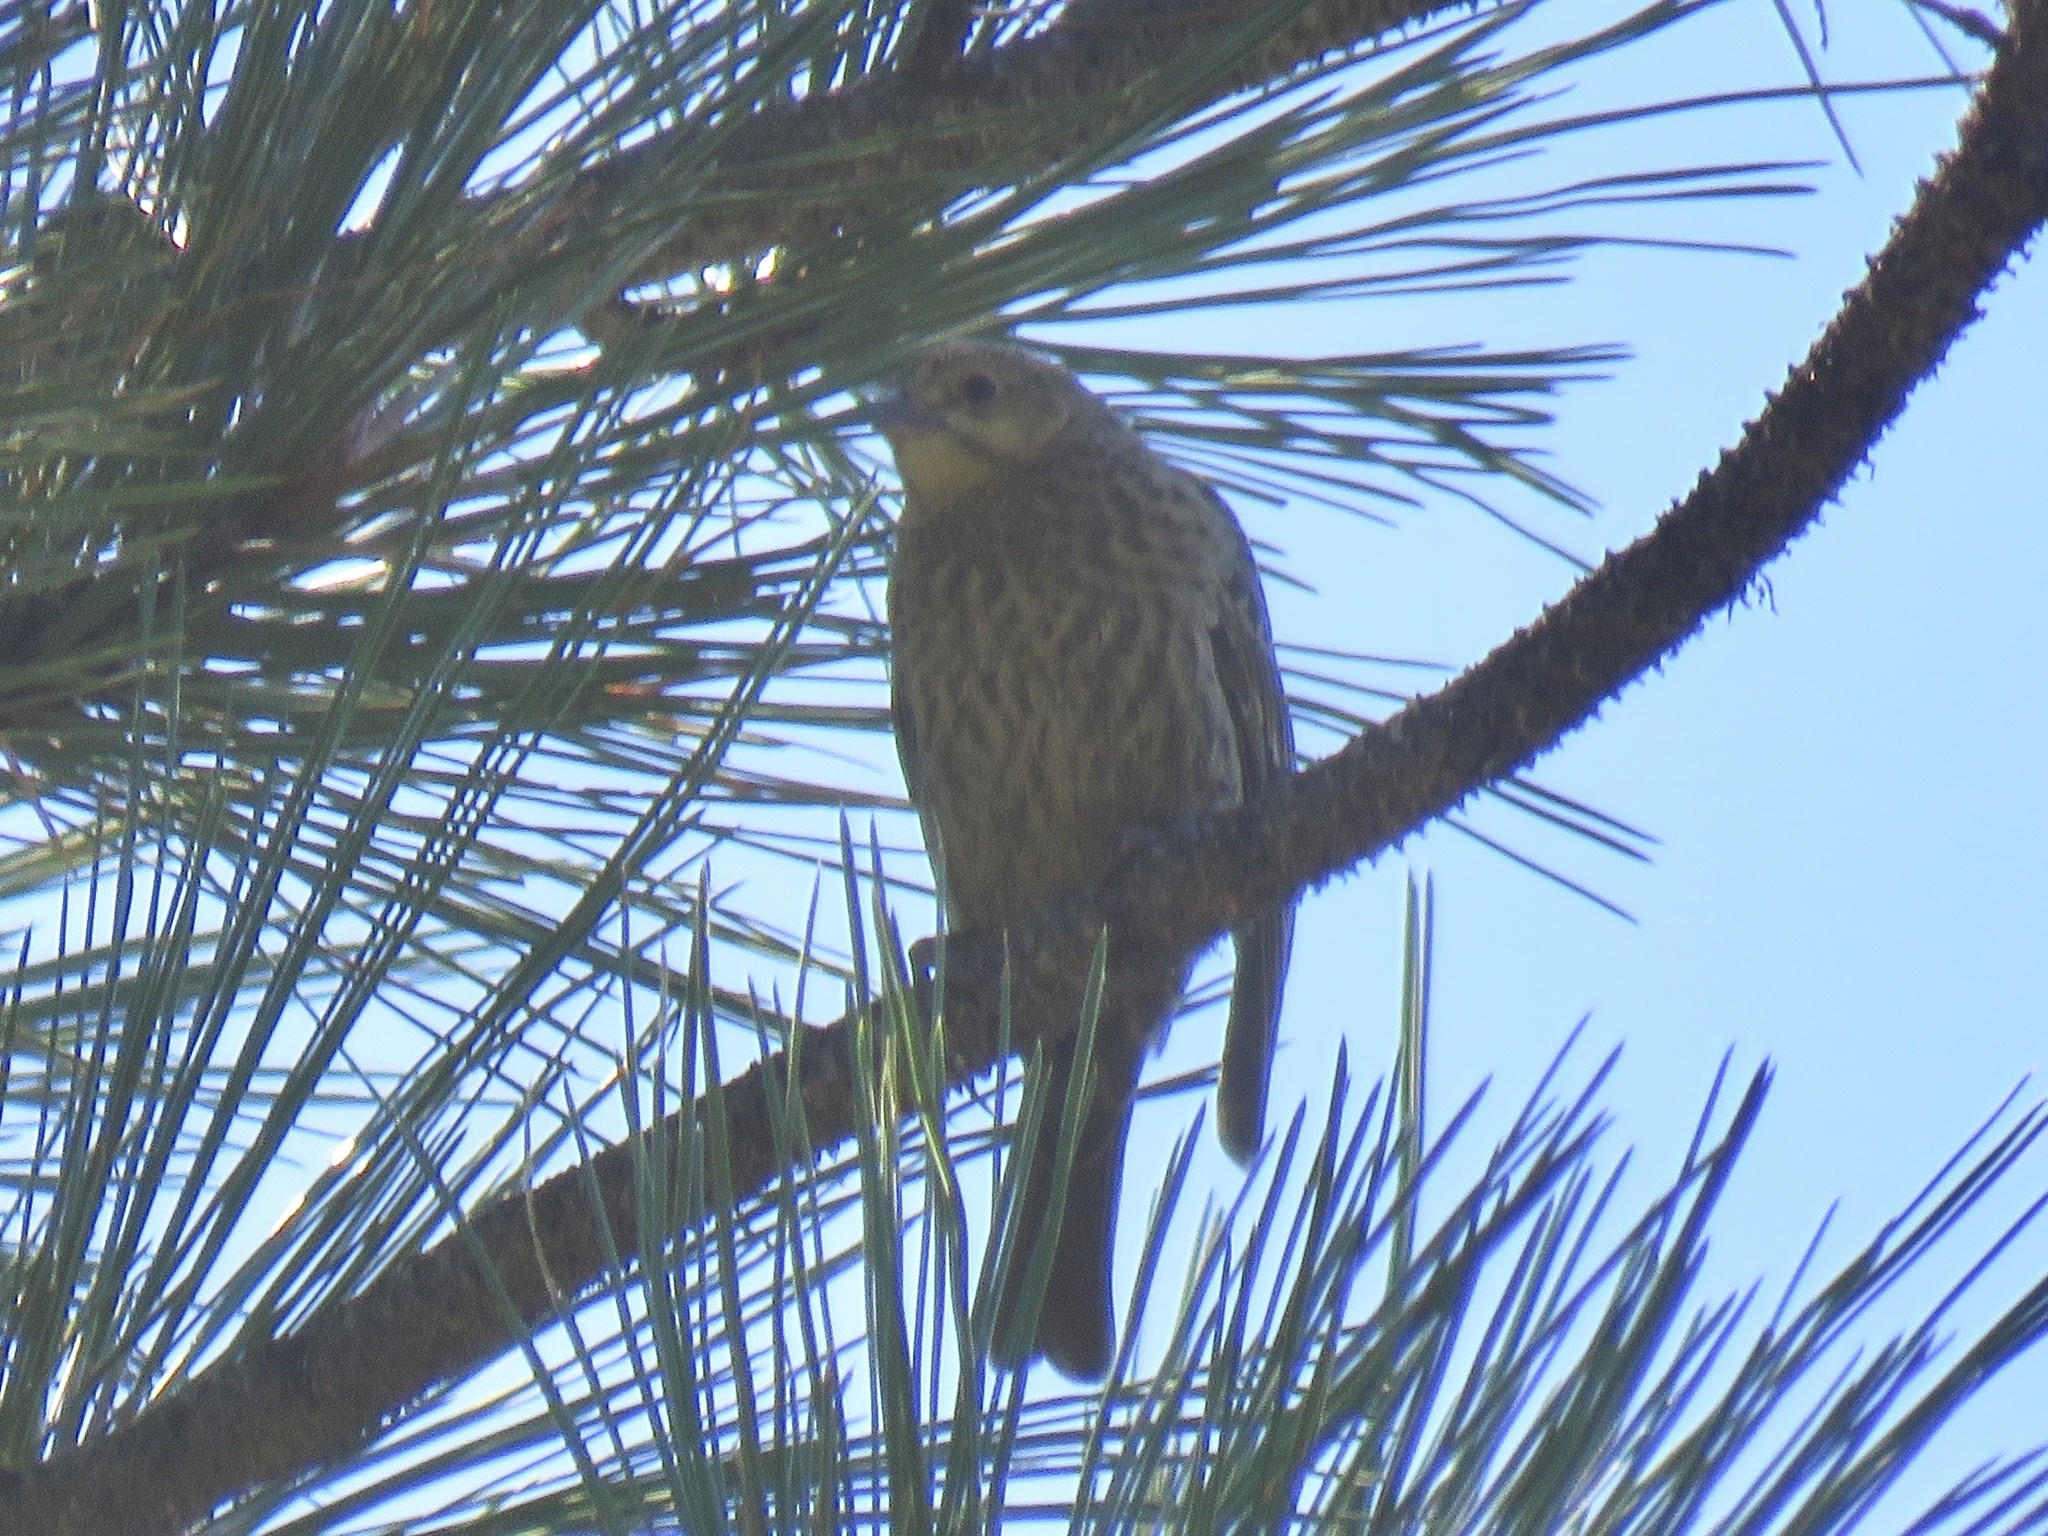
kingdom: Animalia
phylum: Chordata
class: Aves
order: Passeriformes
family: Icteridae
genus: Molothrus
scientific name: Molothrus ater
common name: Brown-headed cowbird
